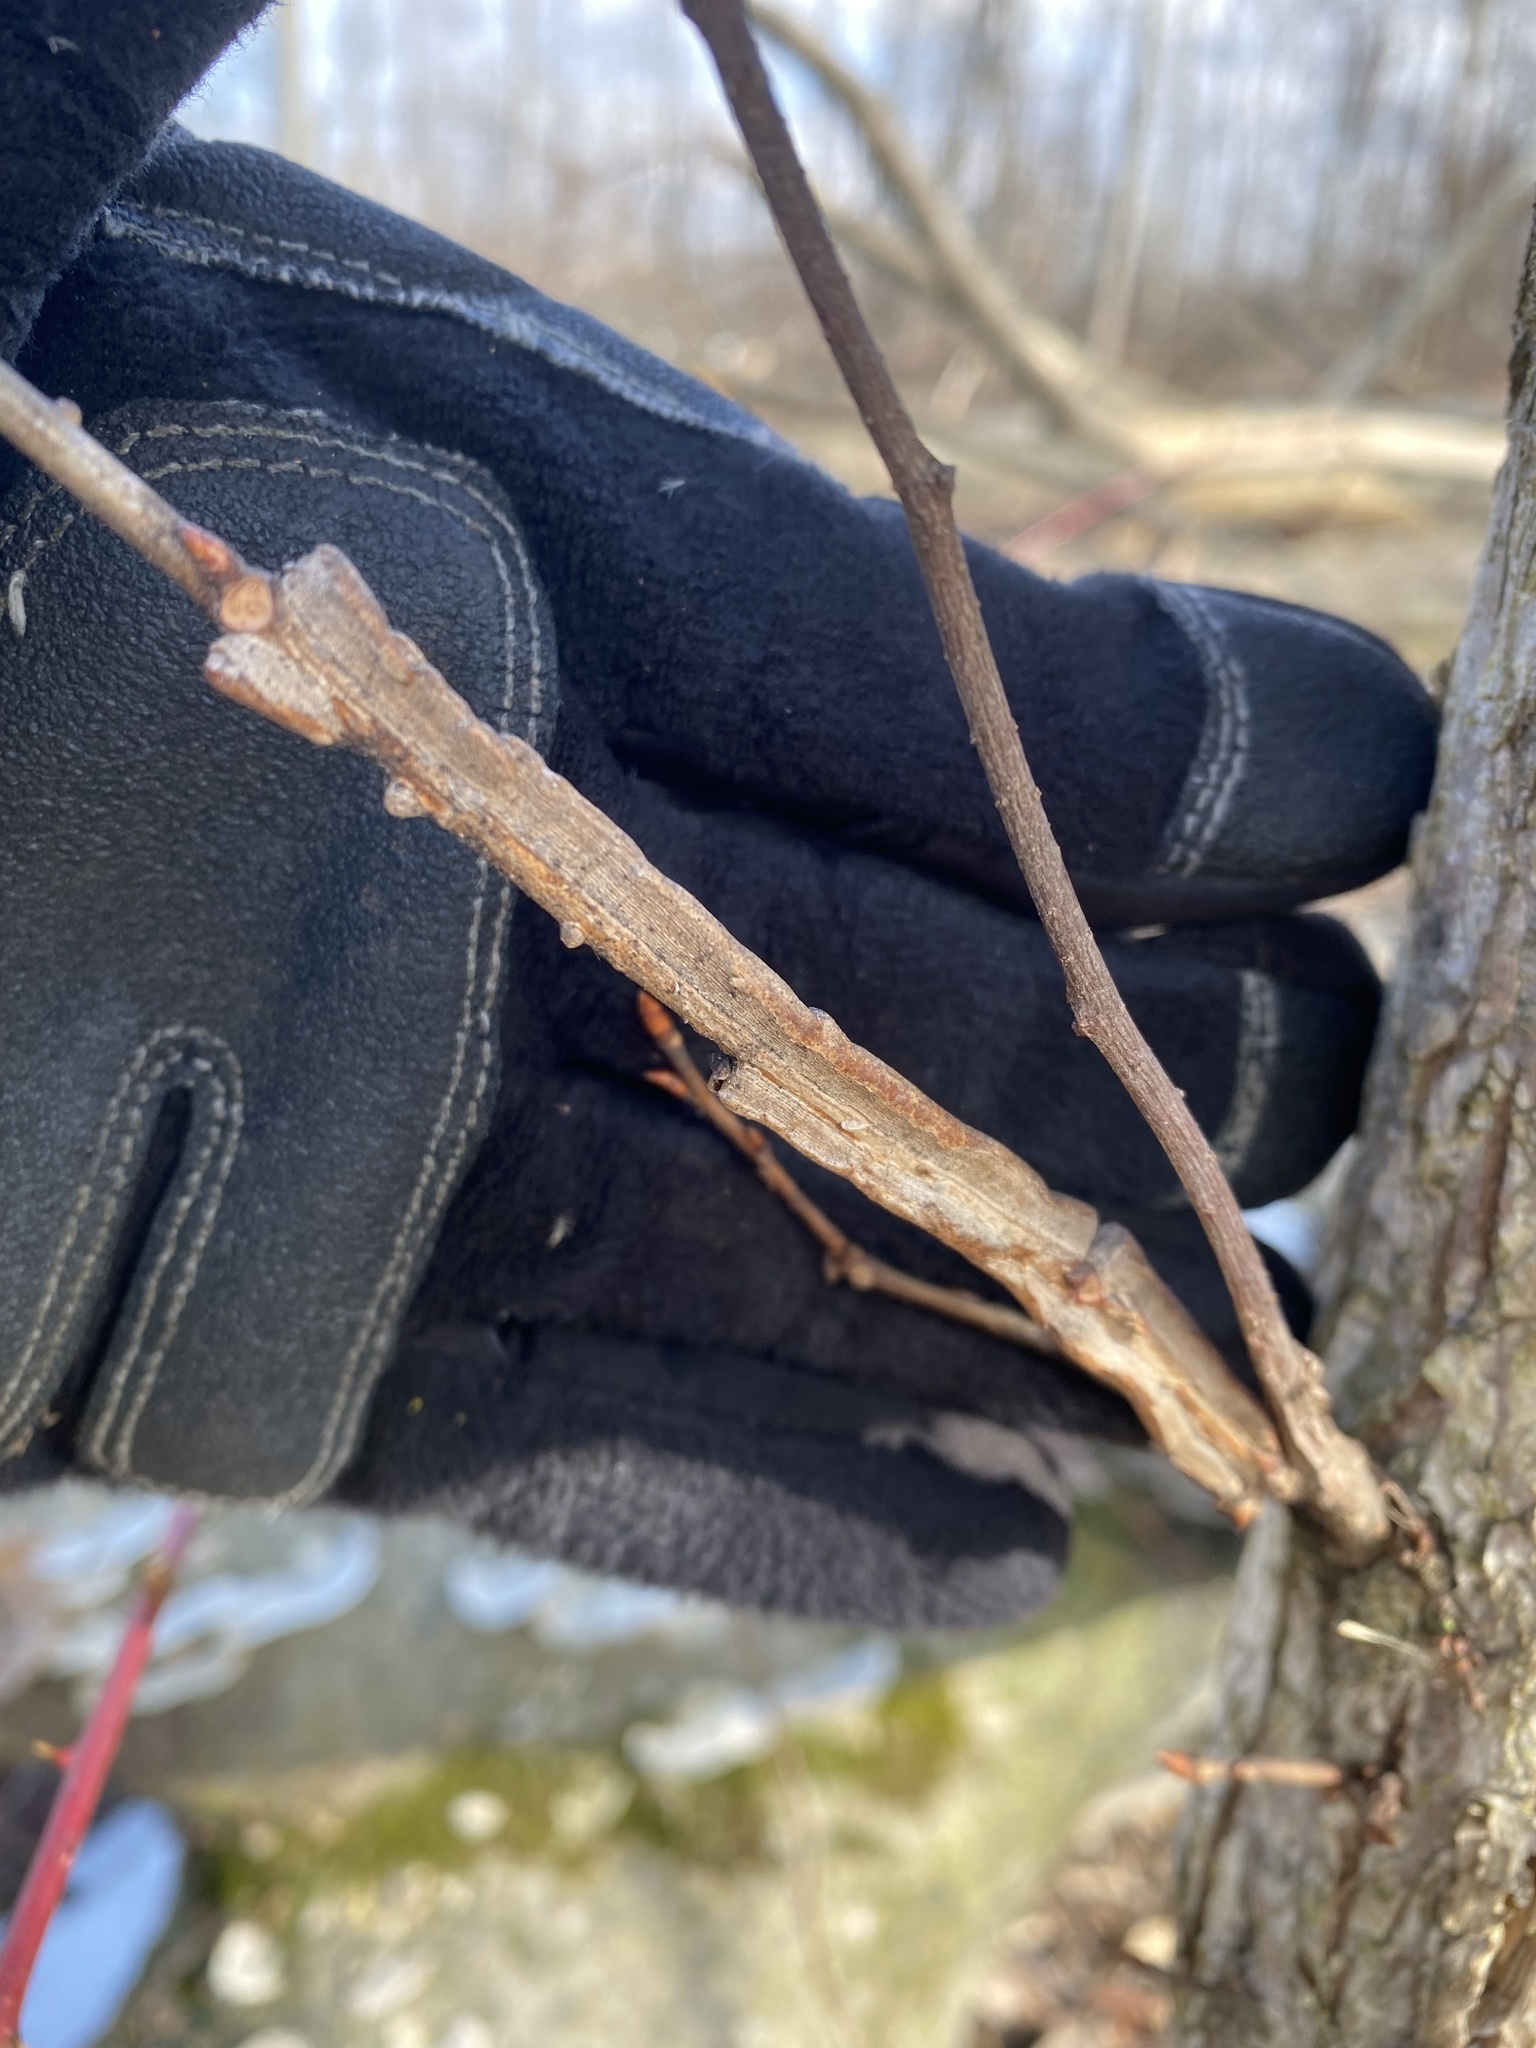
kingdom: Plantae
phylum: Tracheophyta
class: Magnoliopsida
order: Rosales
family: Ulmaceae
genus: Ulmus
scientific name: Ulmus thomasii
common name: Rock elm
